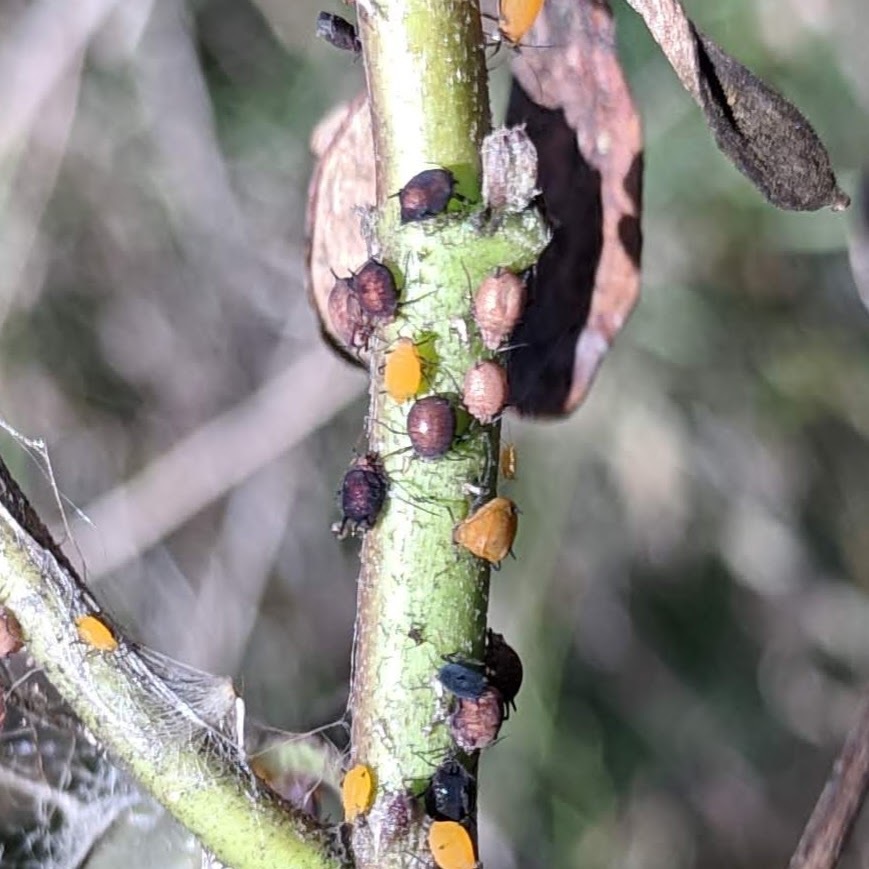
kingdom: Animalia
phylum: Arthropoda
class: Insecta
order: Hemiptera
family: Aphididae
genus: Aphis
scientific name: Aphis nerii
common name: Oleander aphid
